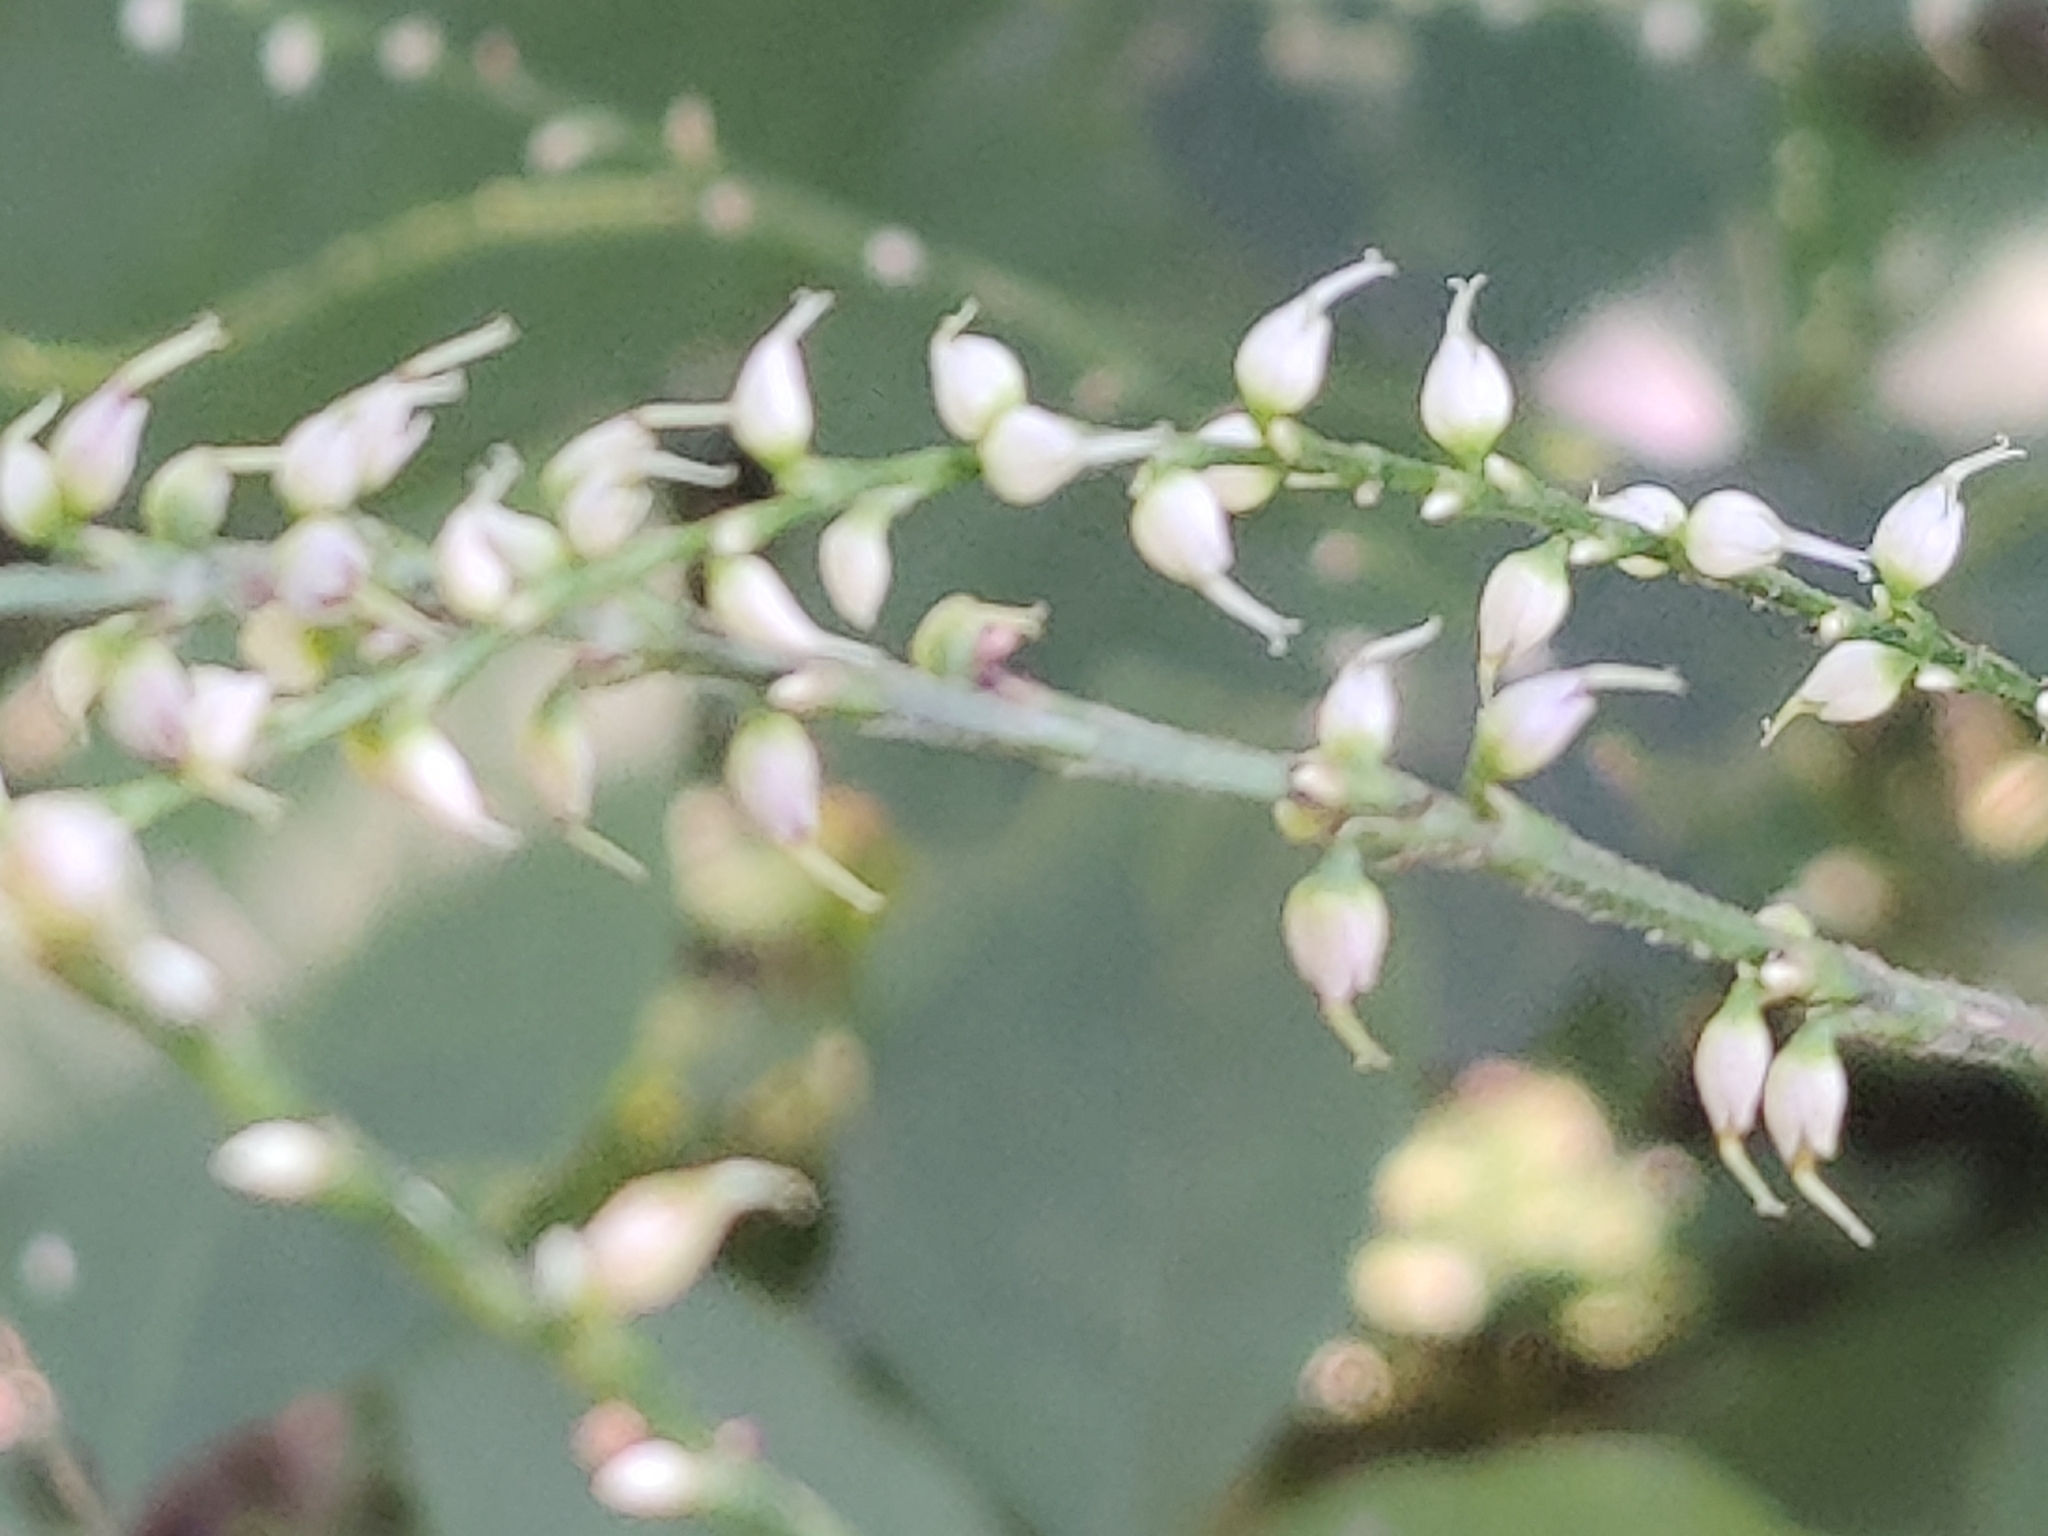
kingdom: Plantae
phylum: Tracheophyta
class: Magnoliopsida
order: Caryophyllales
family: Polygonaceae
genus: Persicaria
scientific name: Persicaria virginiana
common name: Jumpseed
